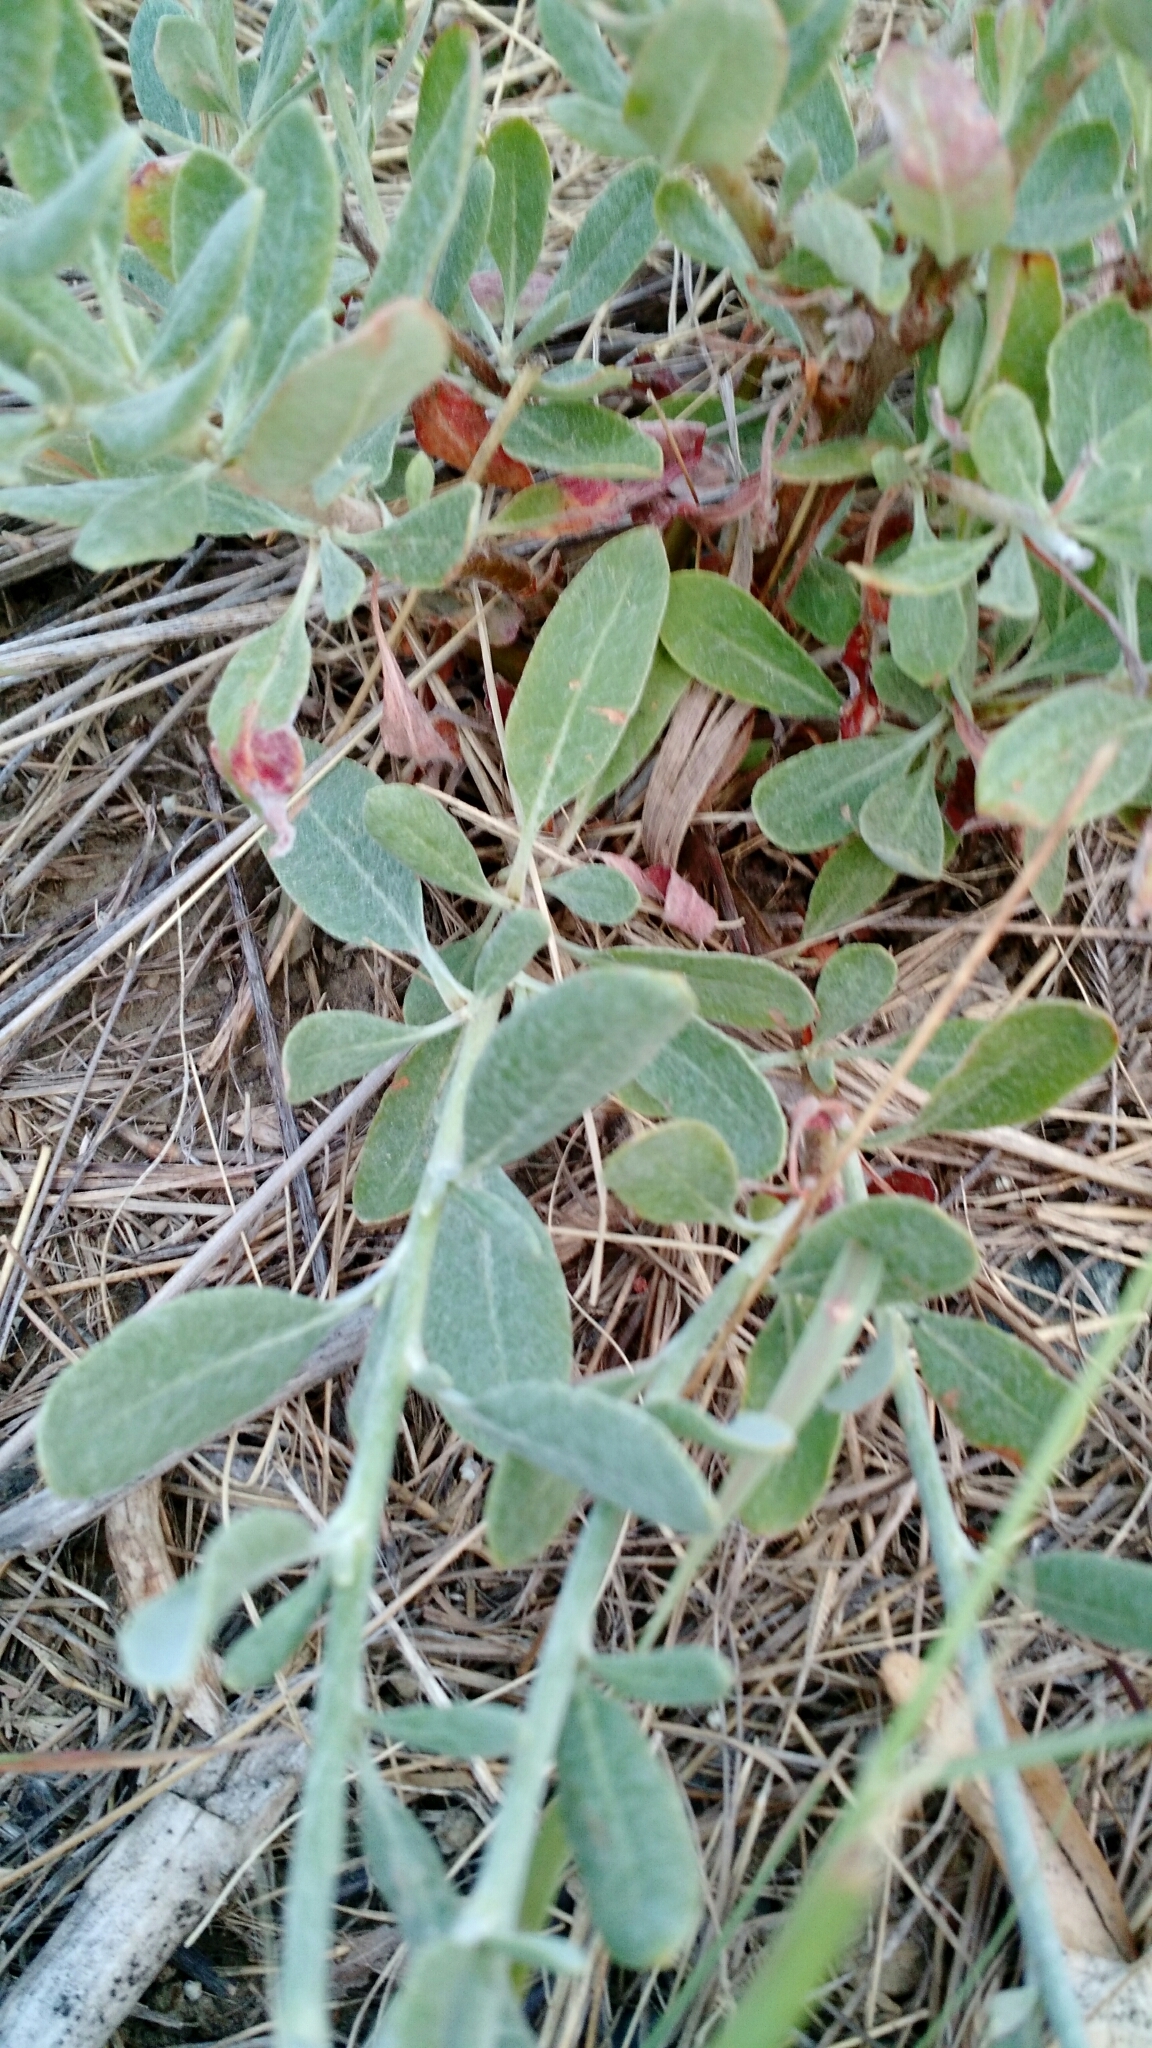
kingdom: Plantae
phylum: Tracheophyta
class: Magnoliopsida
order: Caryophyllales
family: Polygonaceae
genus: Eriogonum
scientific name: Eriogonum annuum
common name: Annual wild buckwheat
